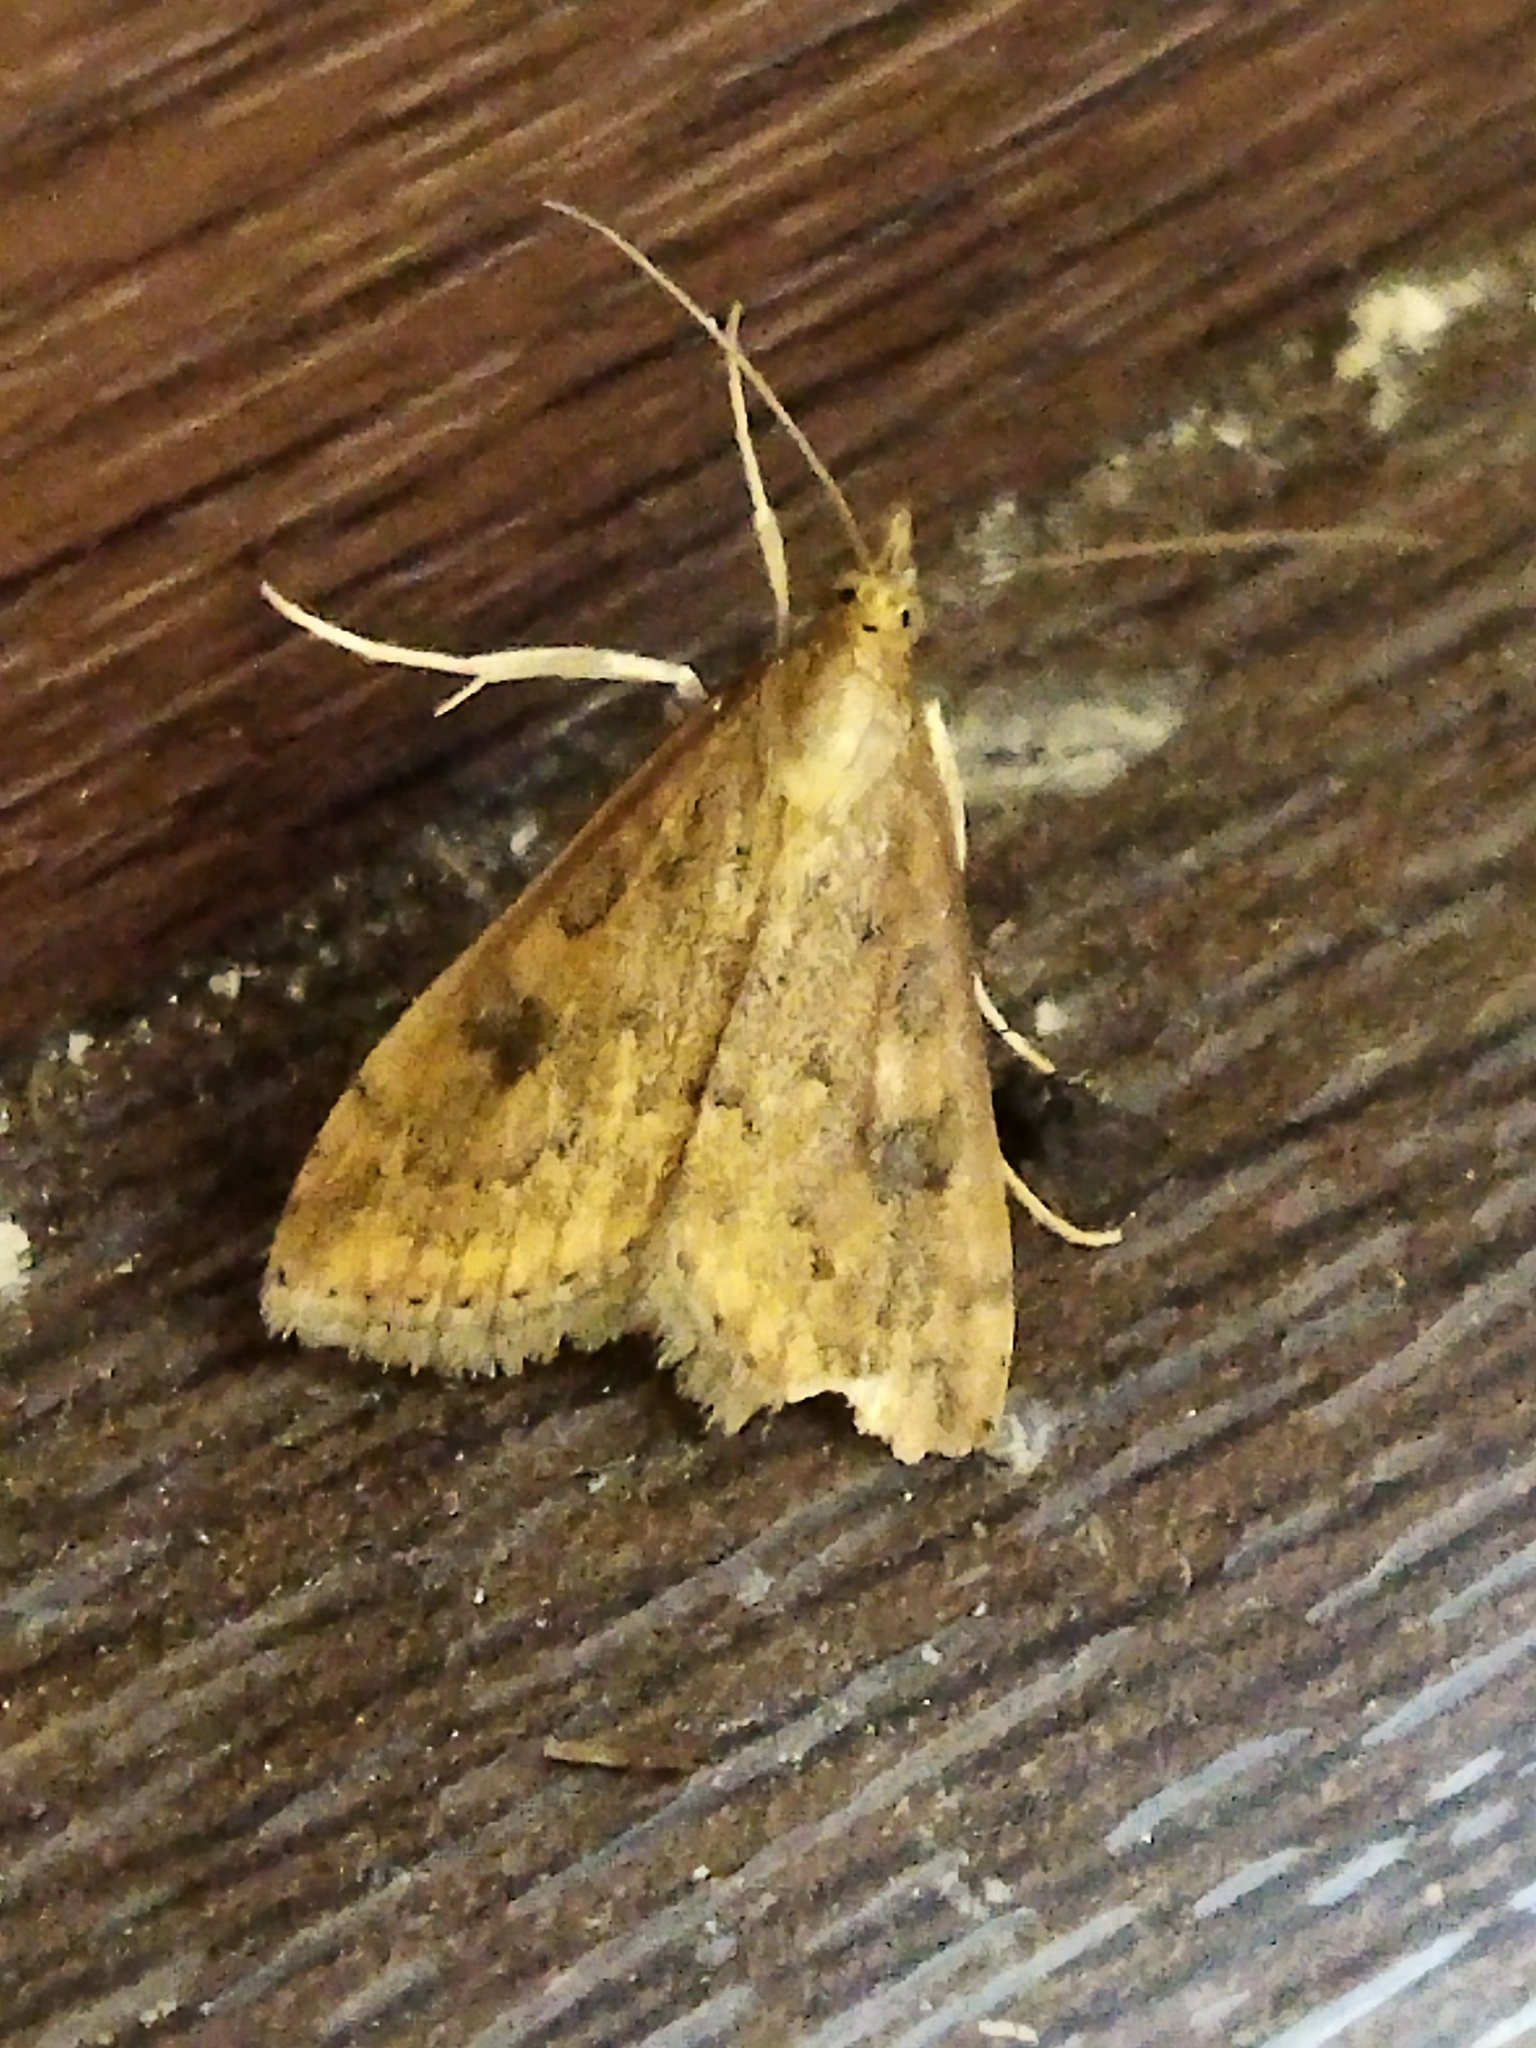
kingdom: Animalia
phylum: Arthropoda
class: Insecta
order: Lepidoptera
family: Crambidae
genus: Udea
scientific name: Udea ferrugalis
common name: Rusty dot
